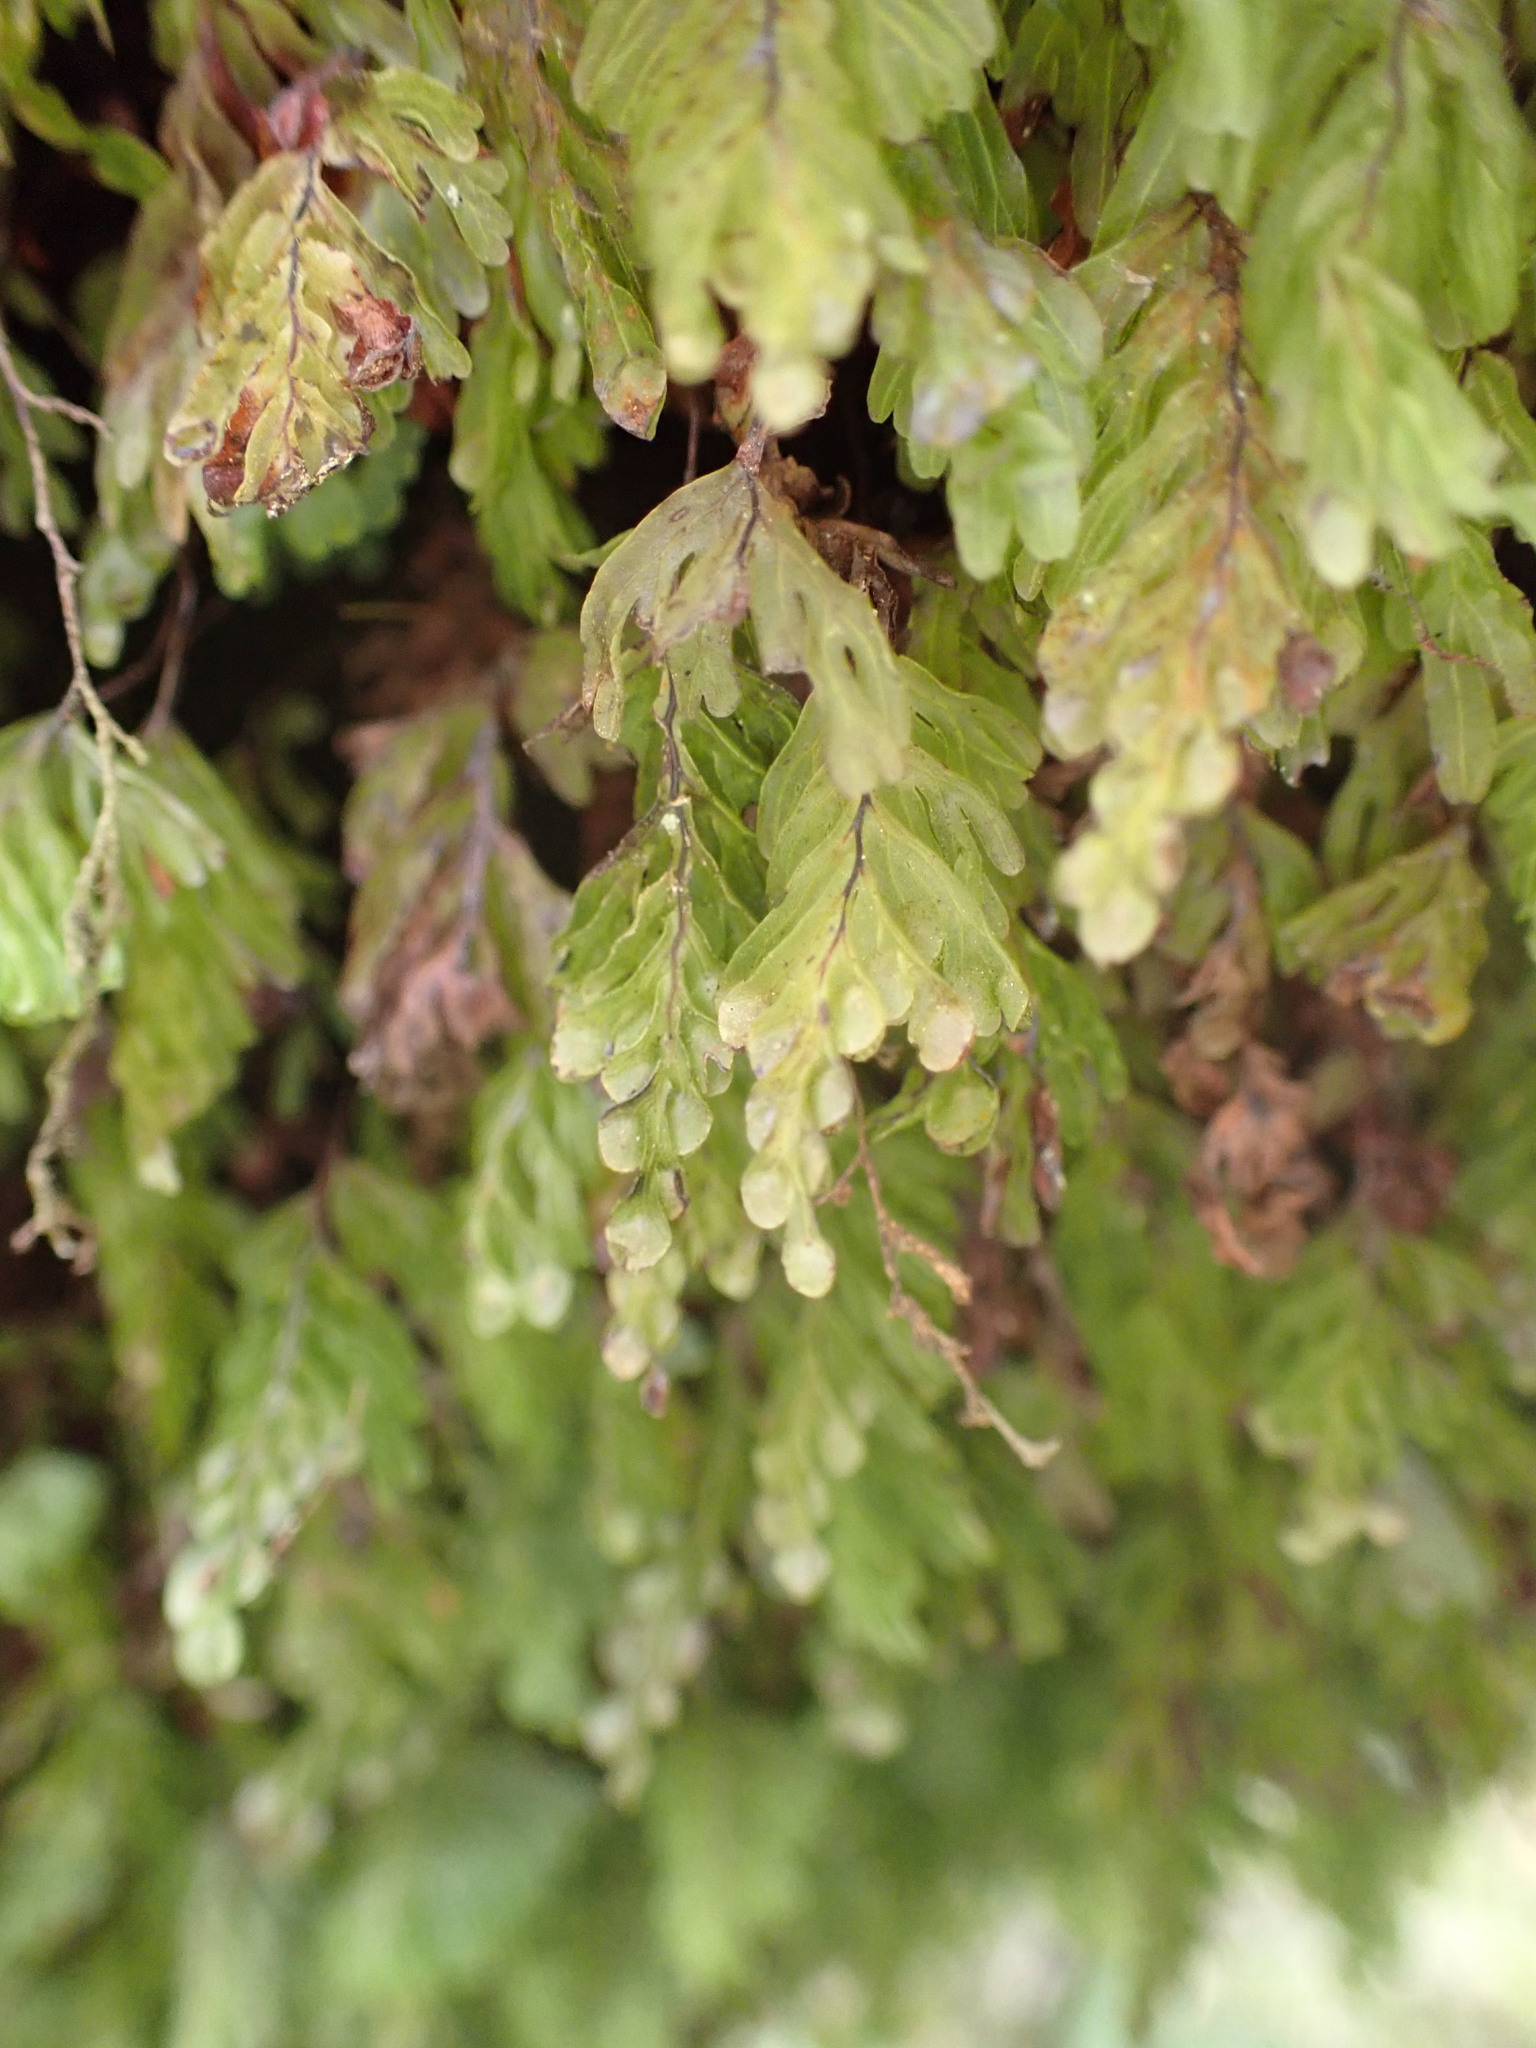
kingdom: Plantae
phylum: Tracheophyta
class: Polypodiopsida
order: Hymenophyllales
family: Hymenophyllaceae
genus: Hymenophyllum
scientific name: Hymenophyllum rarum
